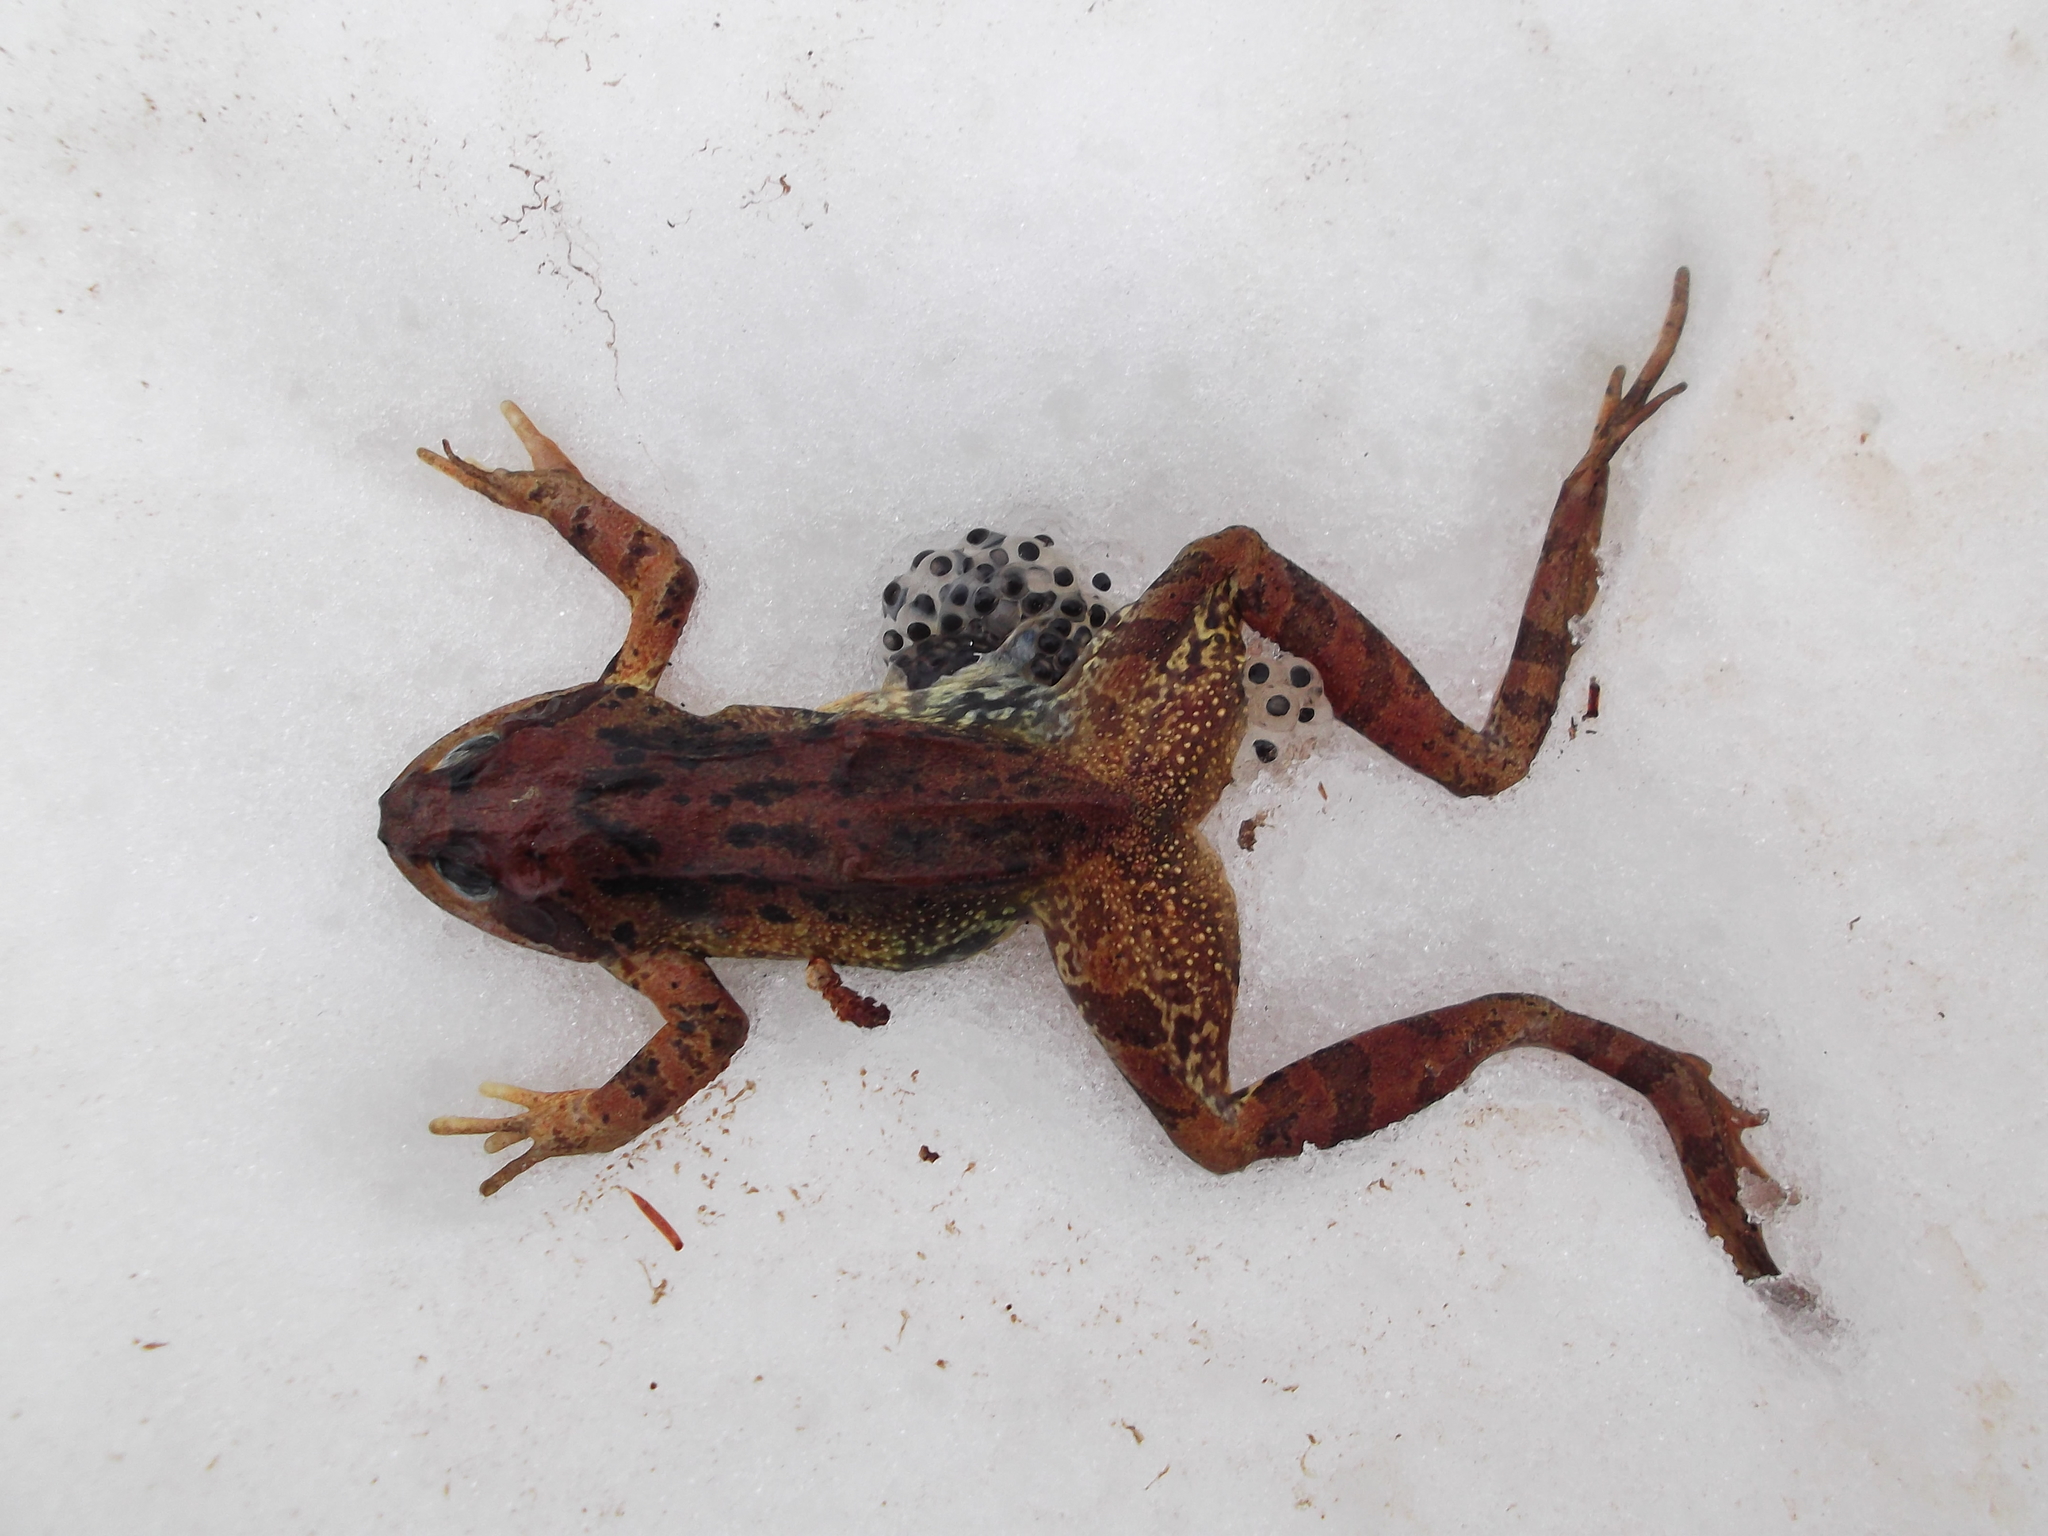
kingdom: Animalia
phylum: Chordata
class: Amphibia
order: Anura
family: Ranidae
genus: Rana
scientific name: Rana temporaria
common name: Common frog
